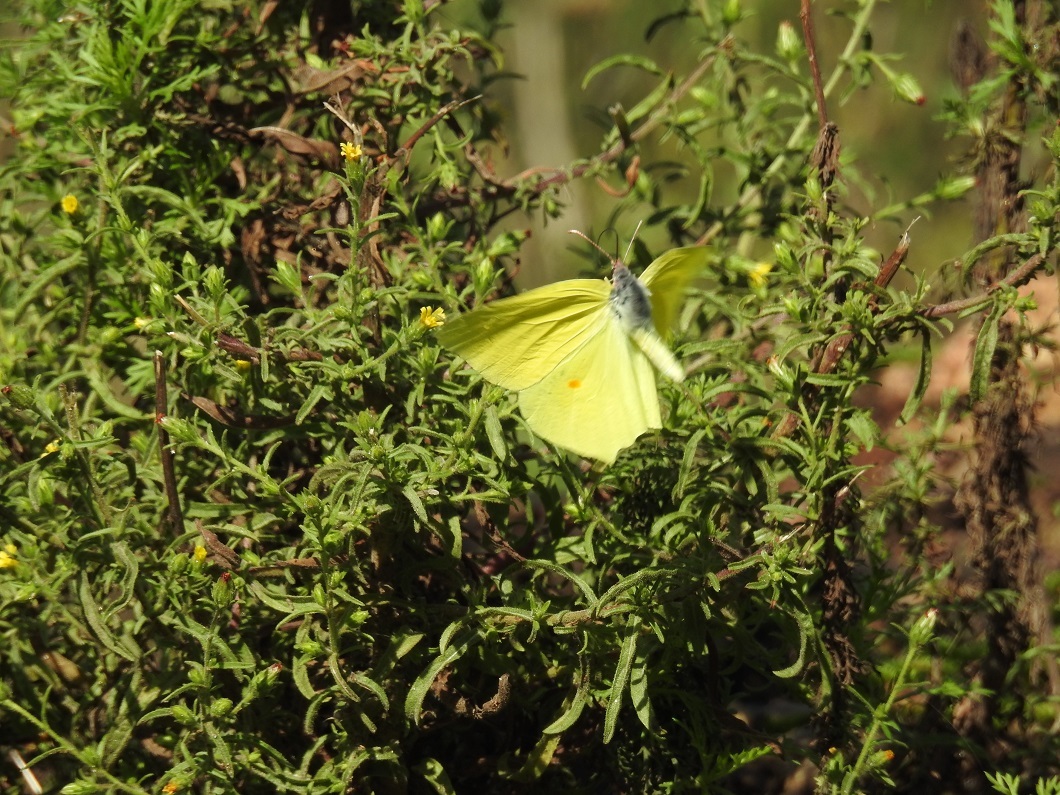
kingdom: Animalia
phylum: Arthropoda
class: Insecta
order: Lepidoptera
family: Pieridae
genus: Gonepteryx
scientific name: Gonepteryx rhamni
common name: Brimstone
